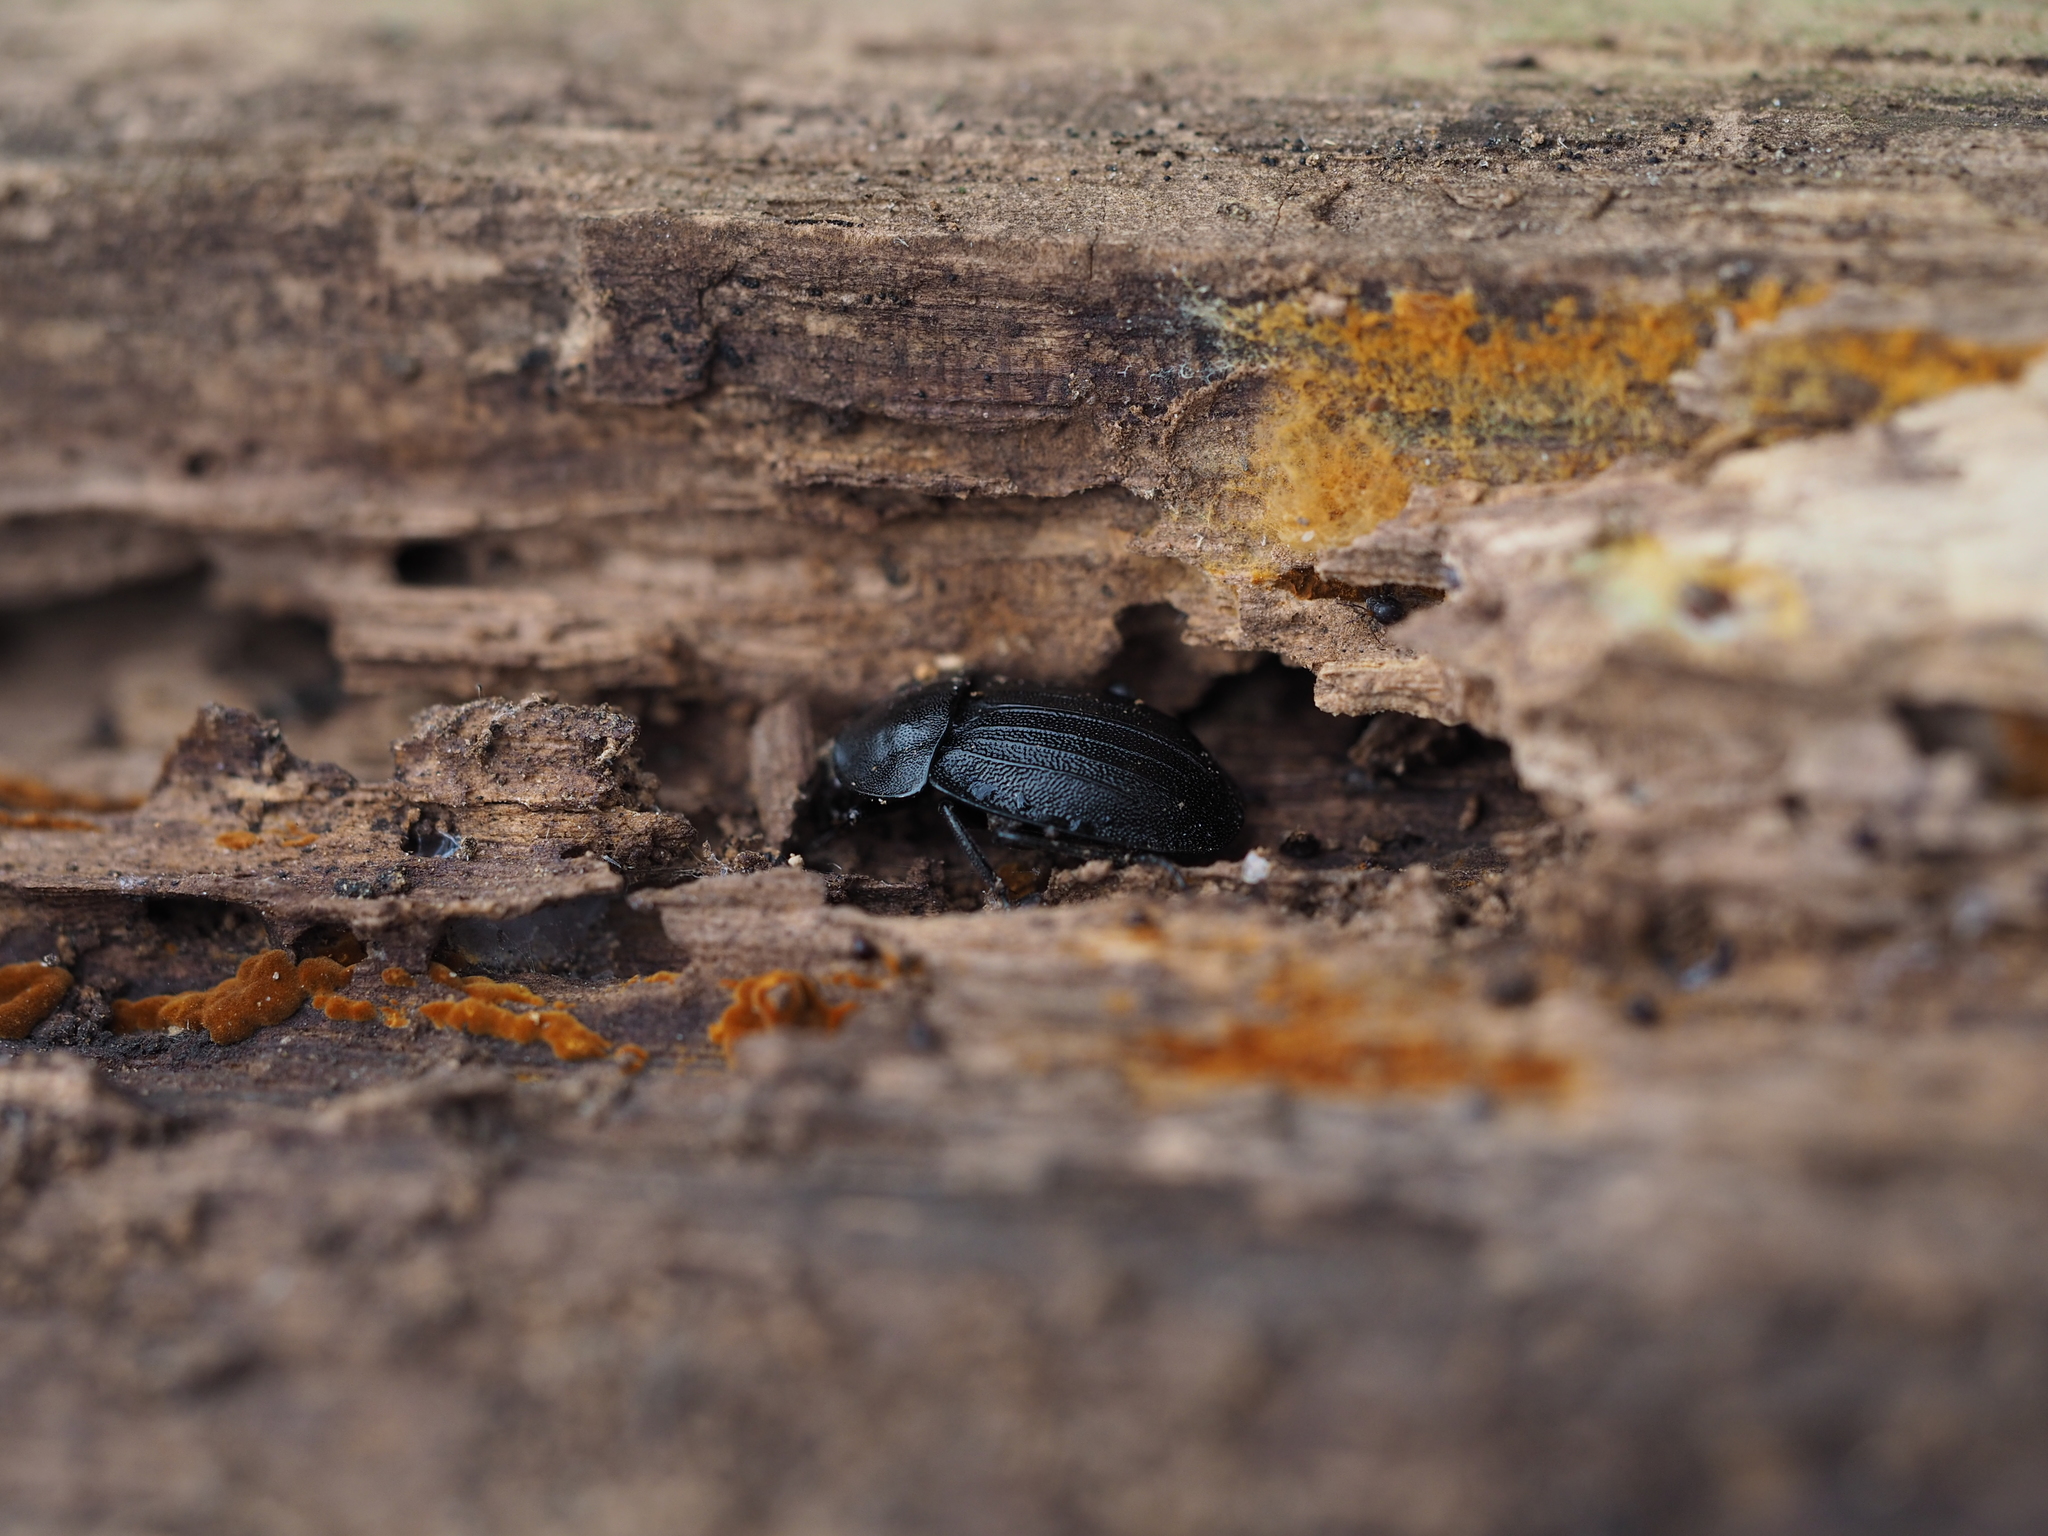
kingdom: Animalia
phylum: Arthropoda
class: Insecta
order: Coleoptera
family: Staphylinidae
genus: Silpha
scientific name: Silpha atrata
